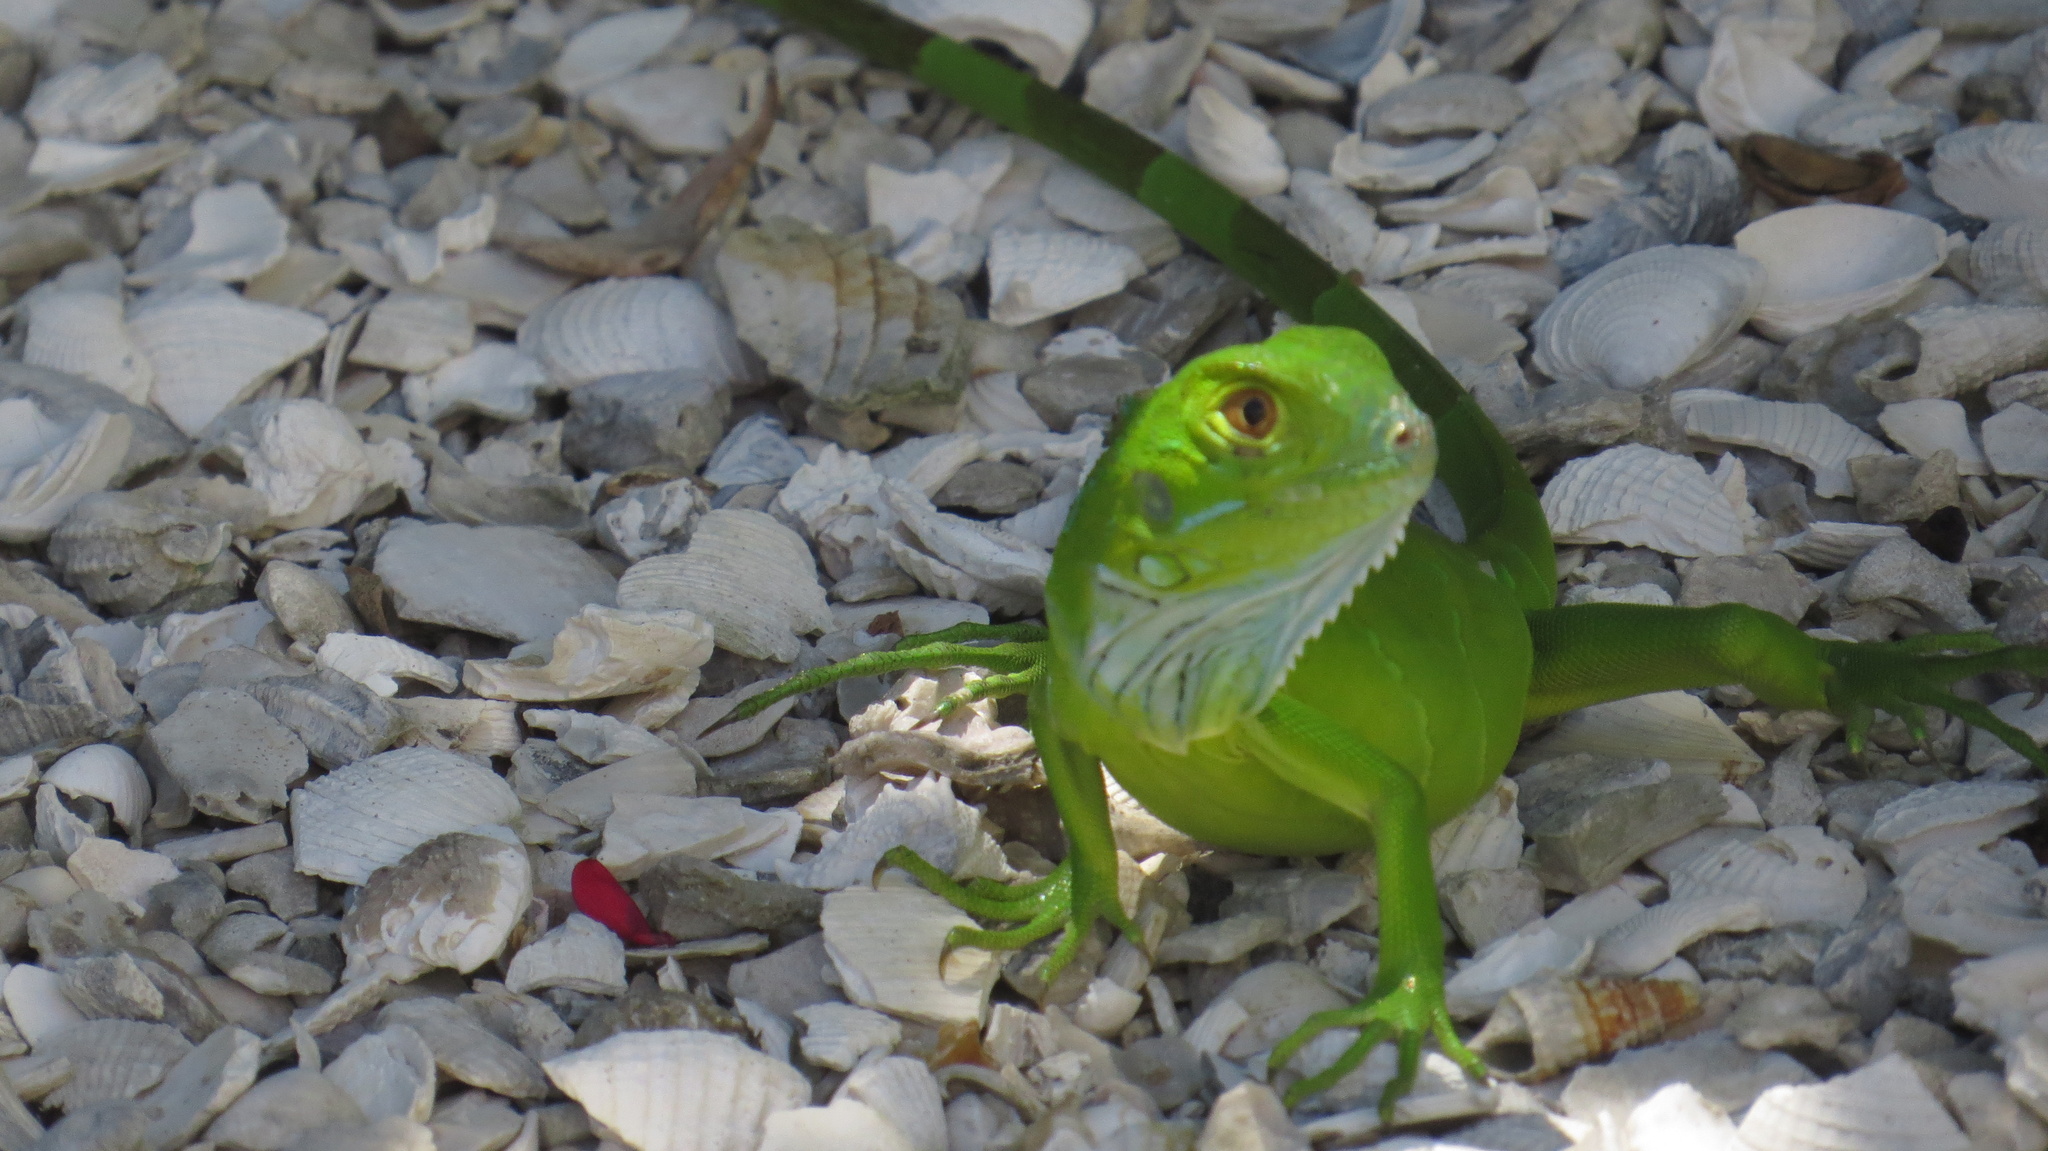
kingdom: Animalia
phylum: Chordata
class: Squamata
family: Iguanidae
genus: Iguana
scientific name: Iguana iguana
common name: Green iguana
